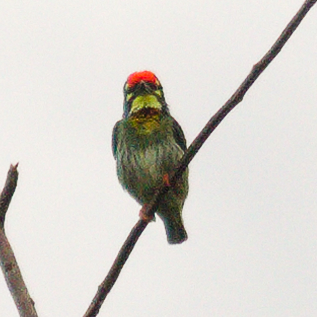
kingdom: Animalia
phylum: Chordata
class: Aves
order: Piciformes
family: Megalaimidae
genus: Psilopogon
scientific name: Psilopogon haemacephalus
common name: Coppersmith barbet
